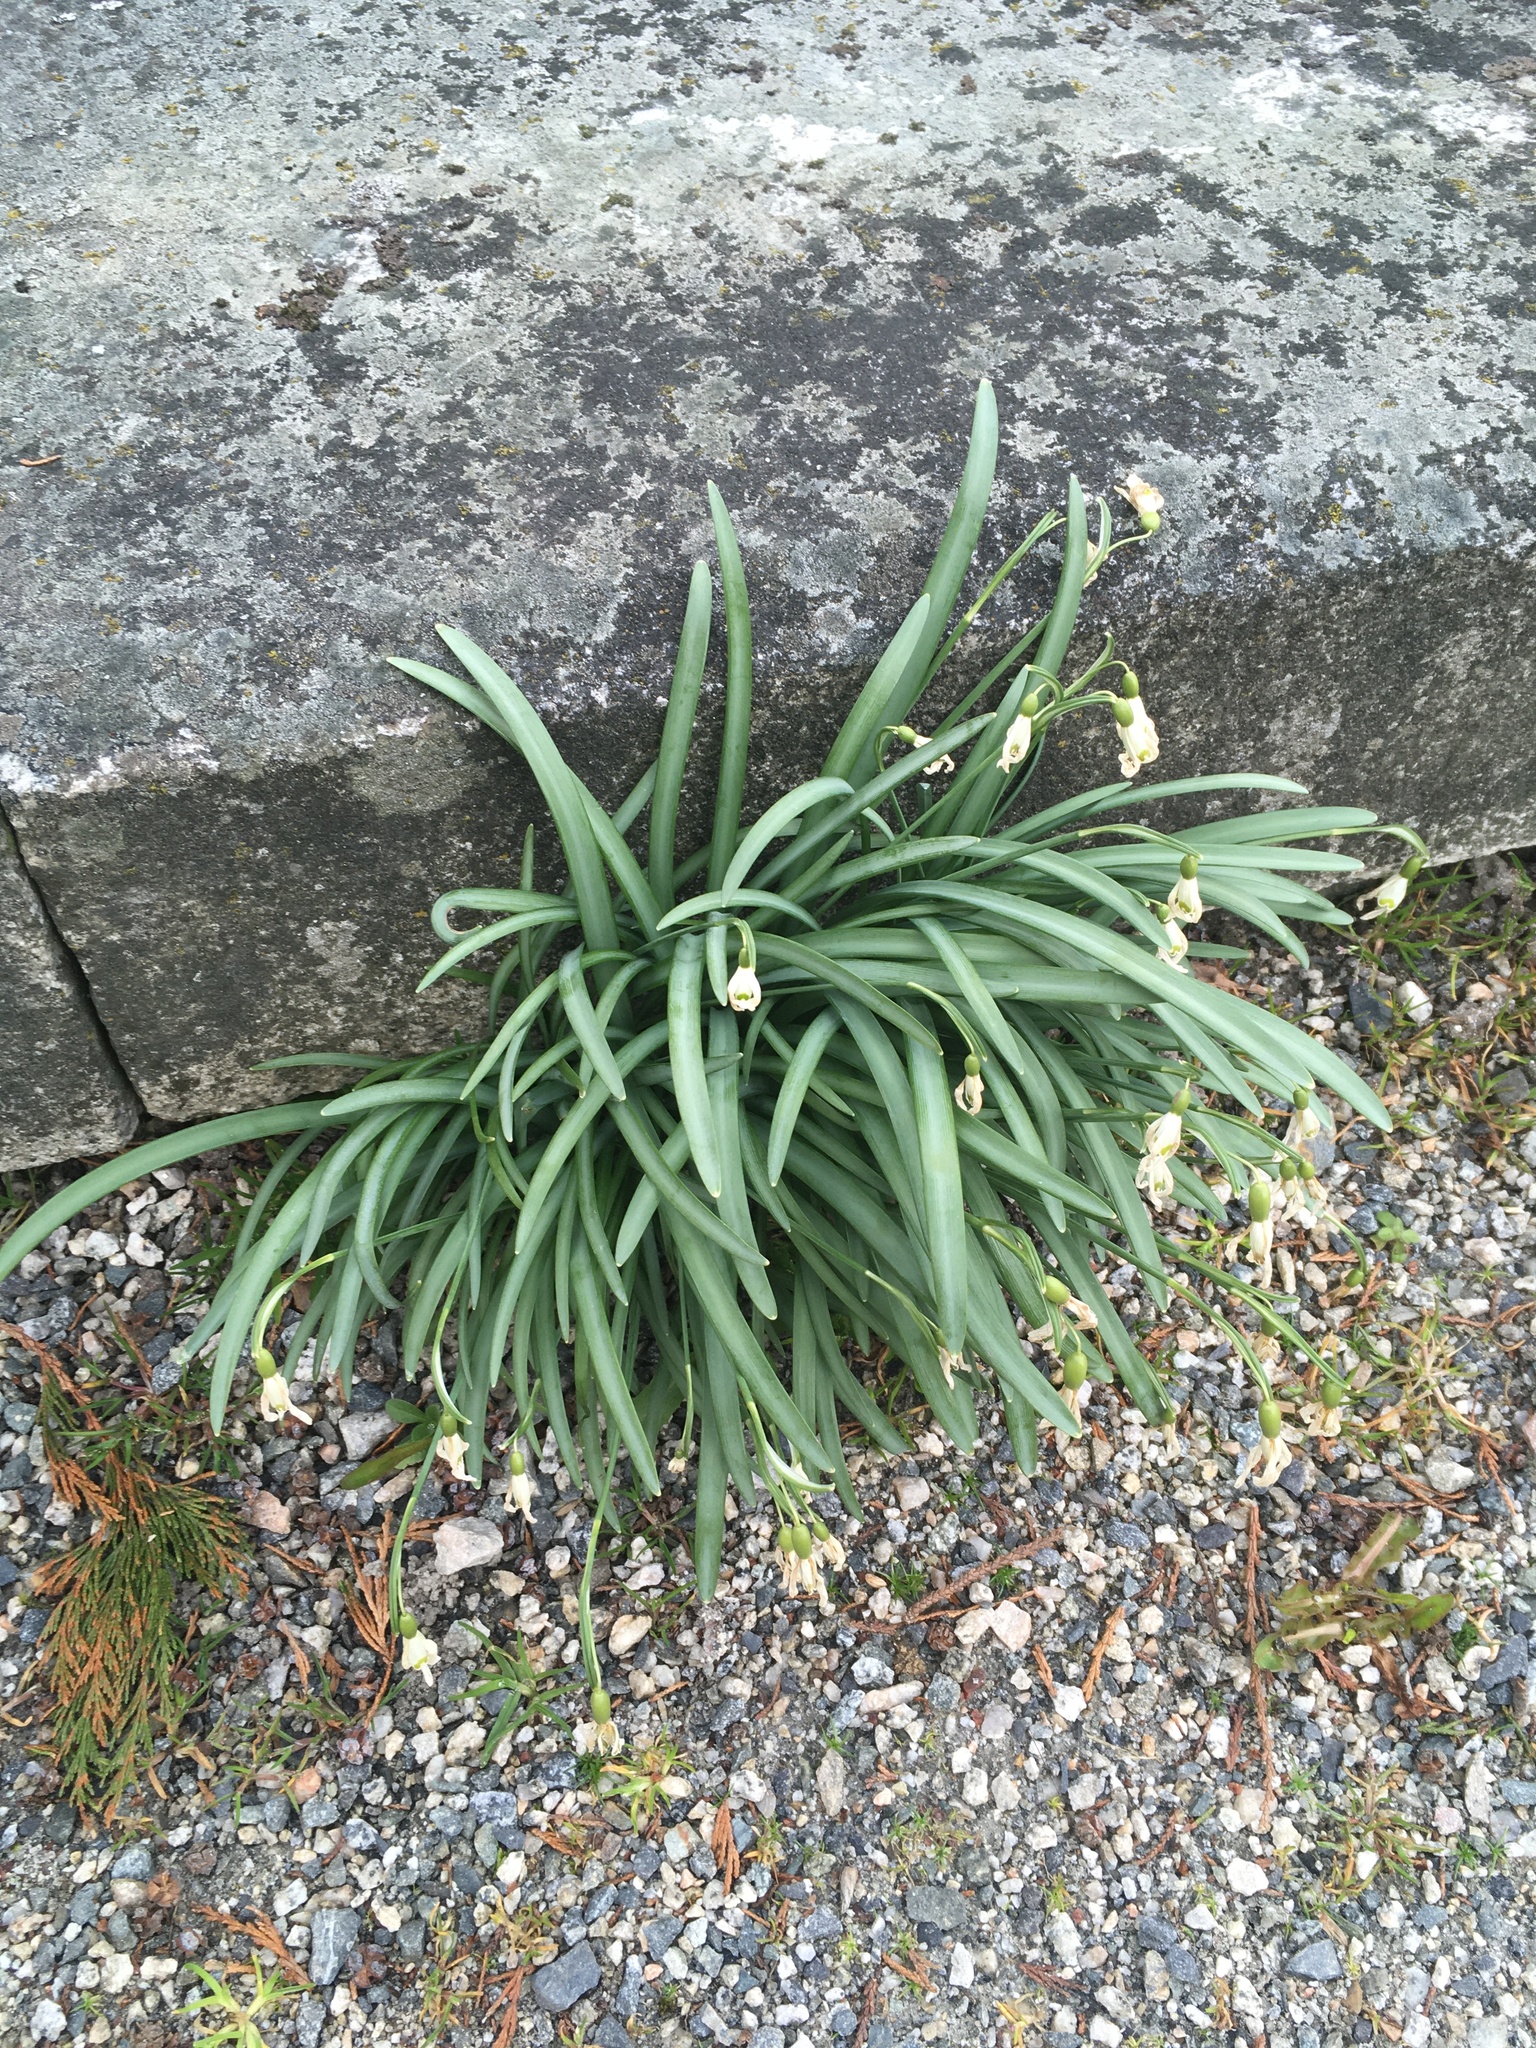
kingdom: Plantae
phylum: Tracheophyta
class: Liliopsida
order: Asparagales
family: Amaryllidaceae
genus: Galanthus
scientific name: Galanthus nivalis
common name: Snowdrop
